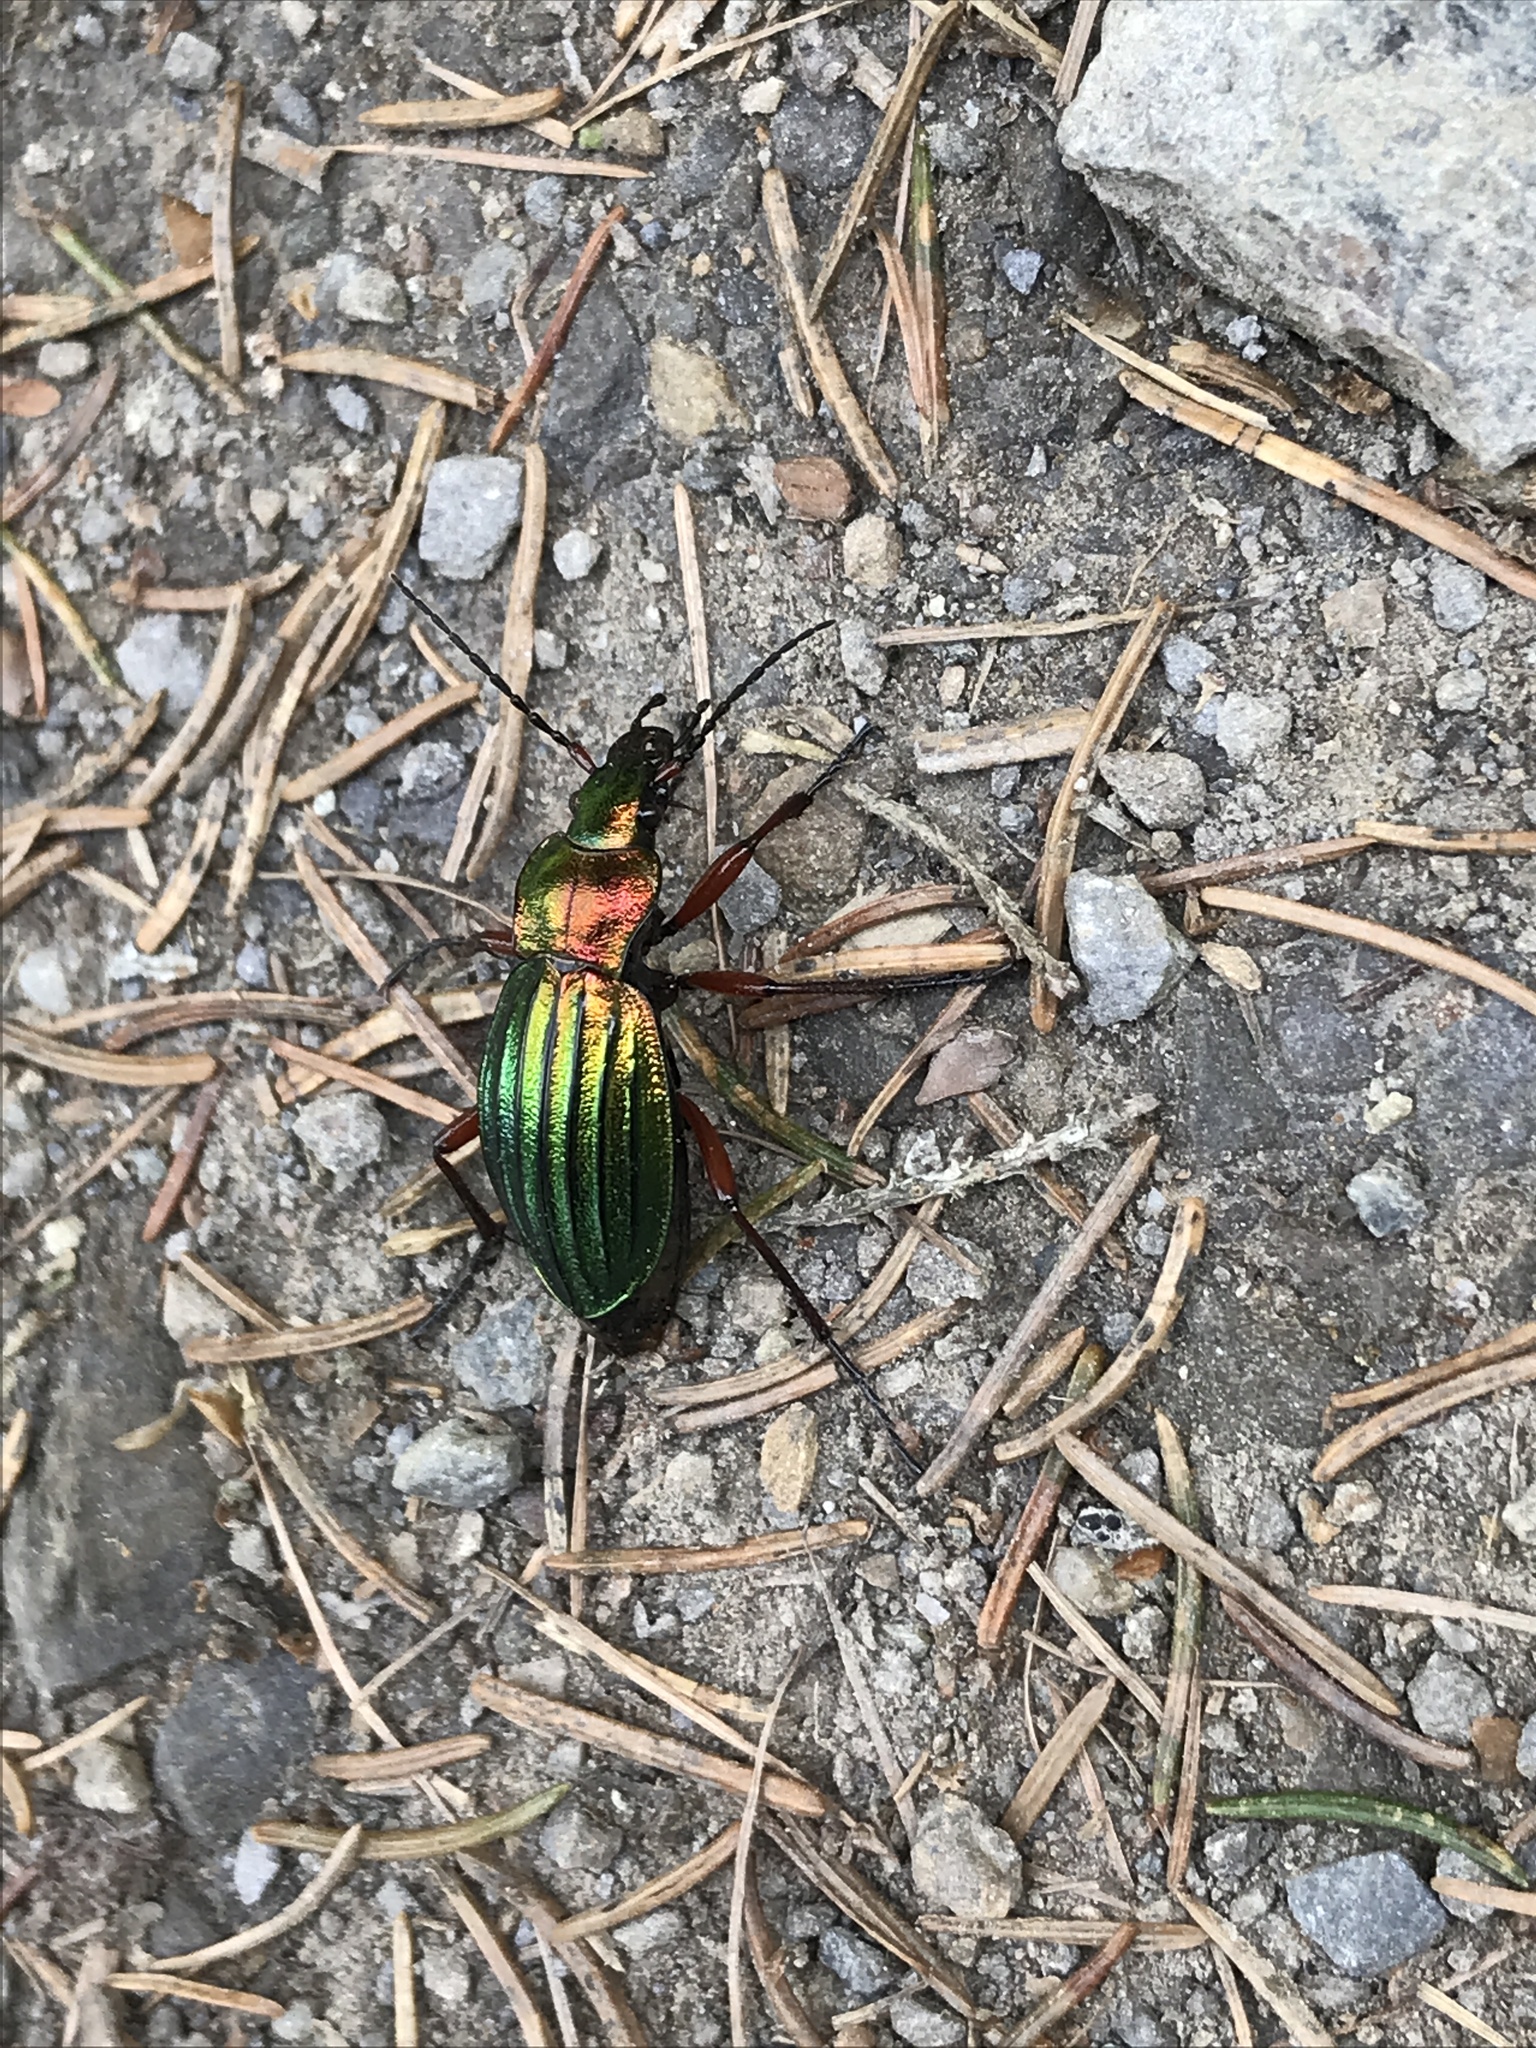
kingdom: Animalia
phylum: Arthropoda
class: Insecta
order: Coleoptera
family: Carabidae
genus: Carabus
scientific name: Carabus auronitens
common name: Carabus auronitens
